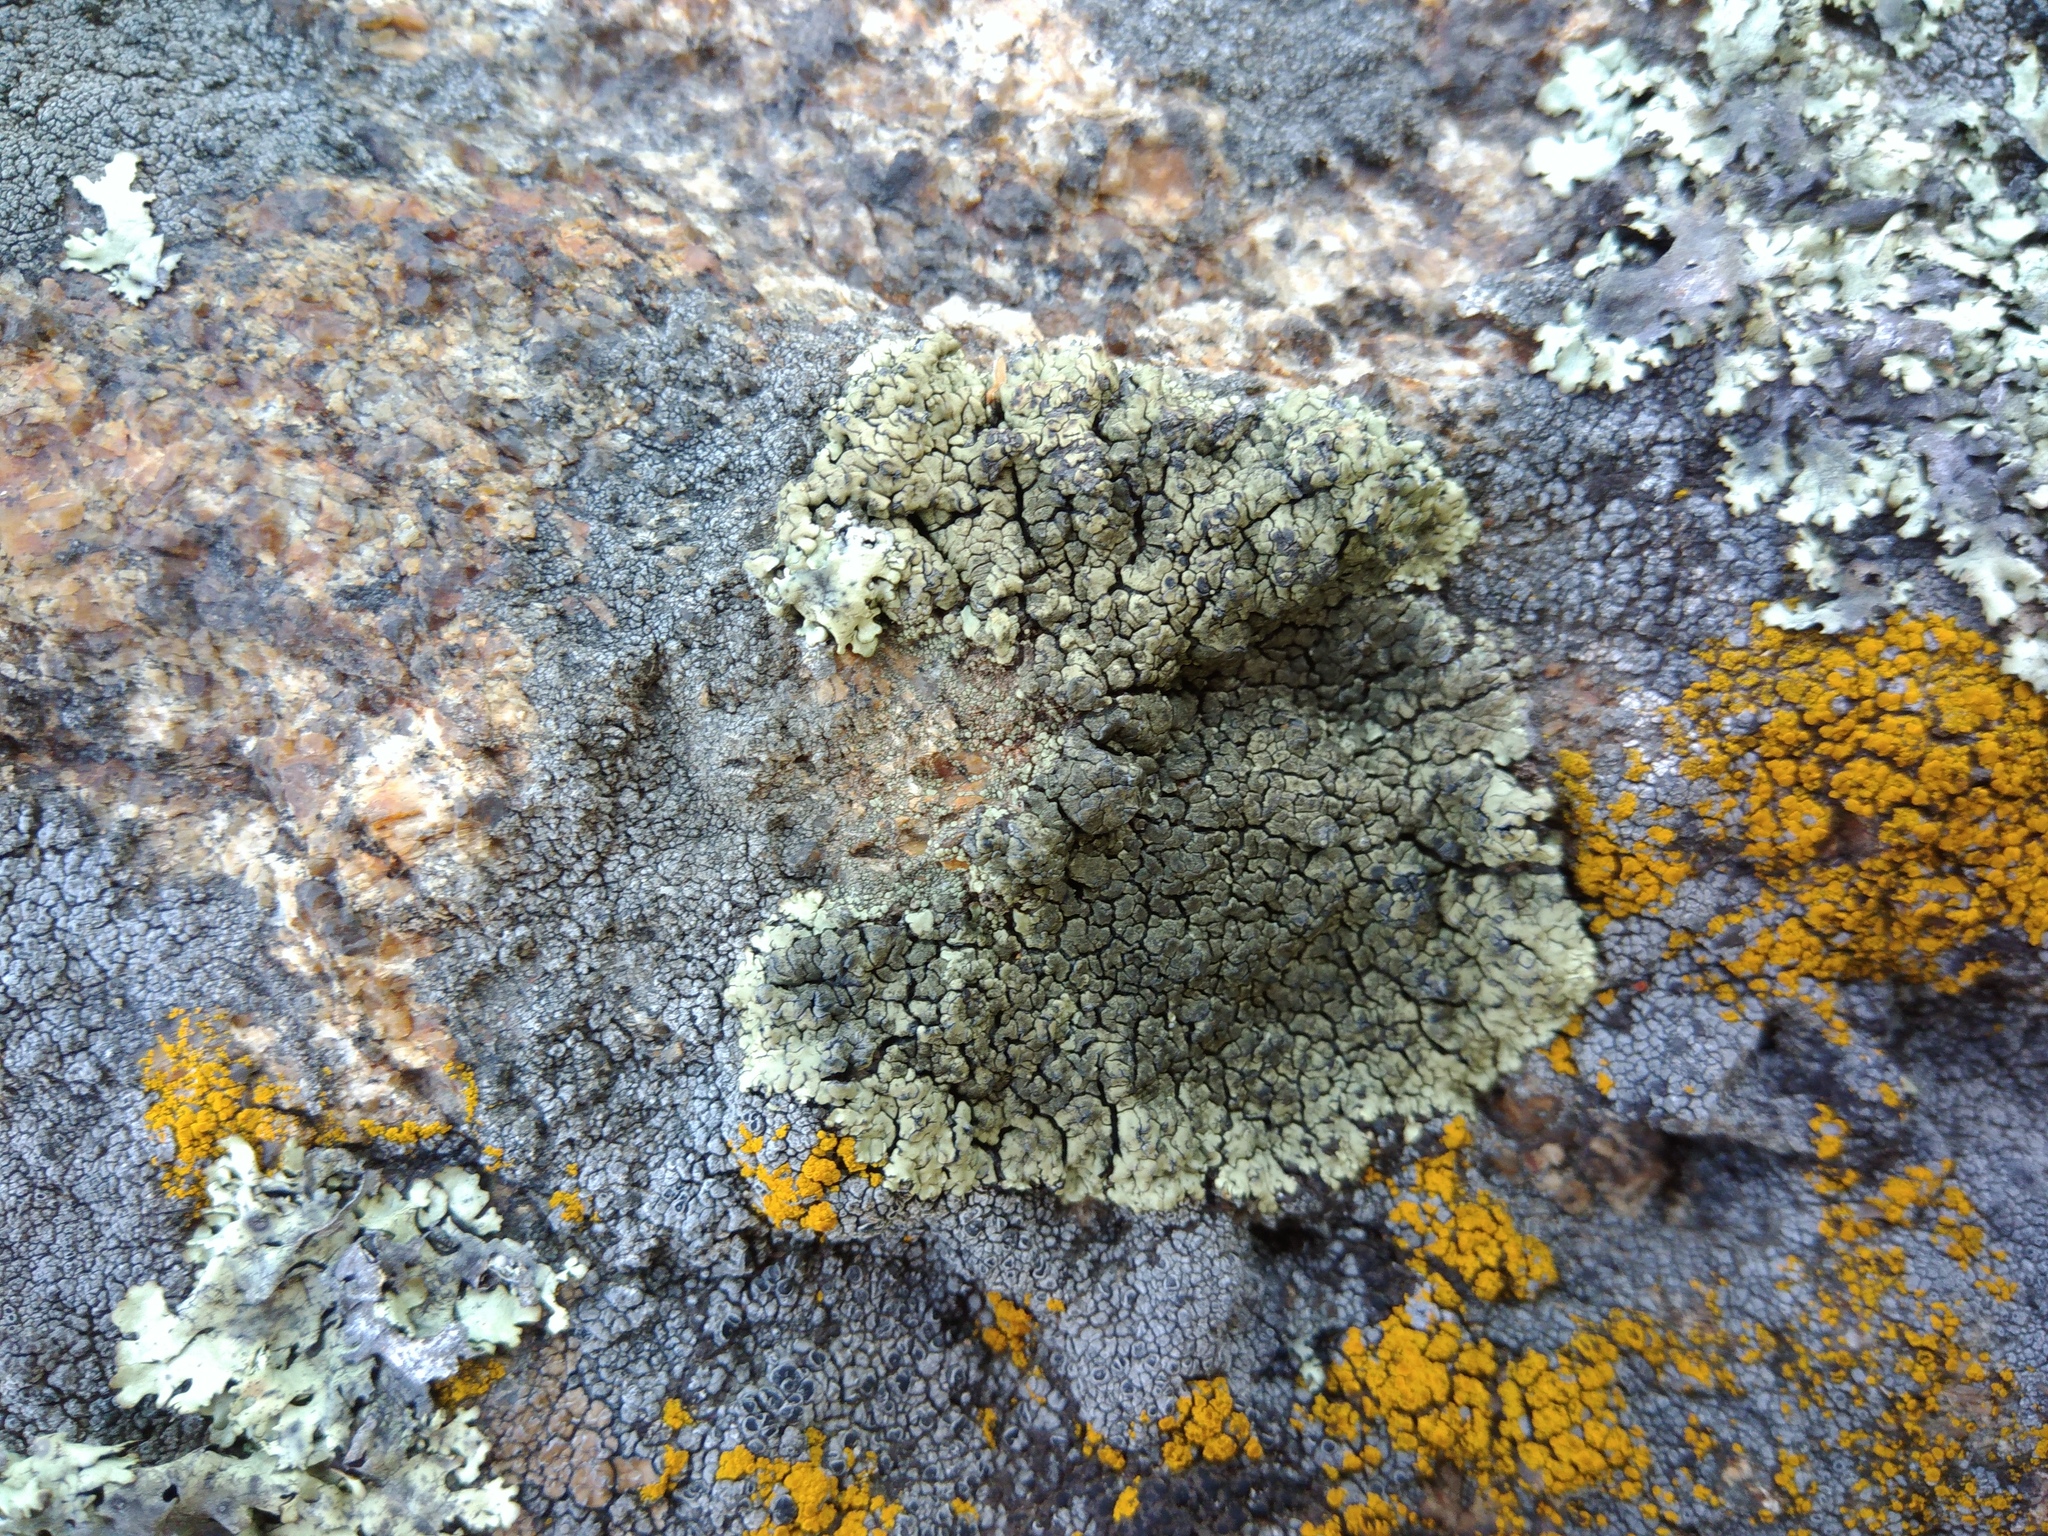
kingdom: Fungi
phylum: Ascomycota
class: Lecanoromycetes
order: Lecanorales
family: Lecanoraceae
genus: Protoparmeliopsis
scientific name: Protoparmeliopsis muralis
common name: Stonewall rim lichen
